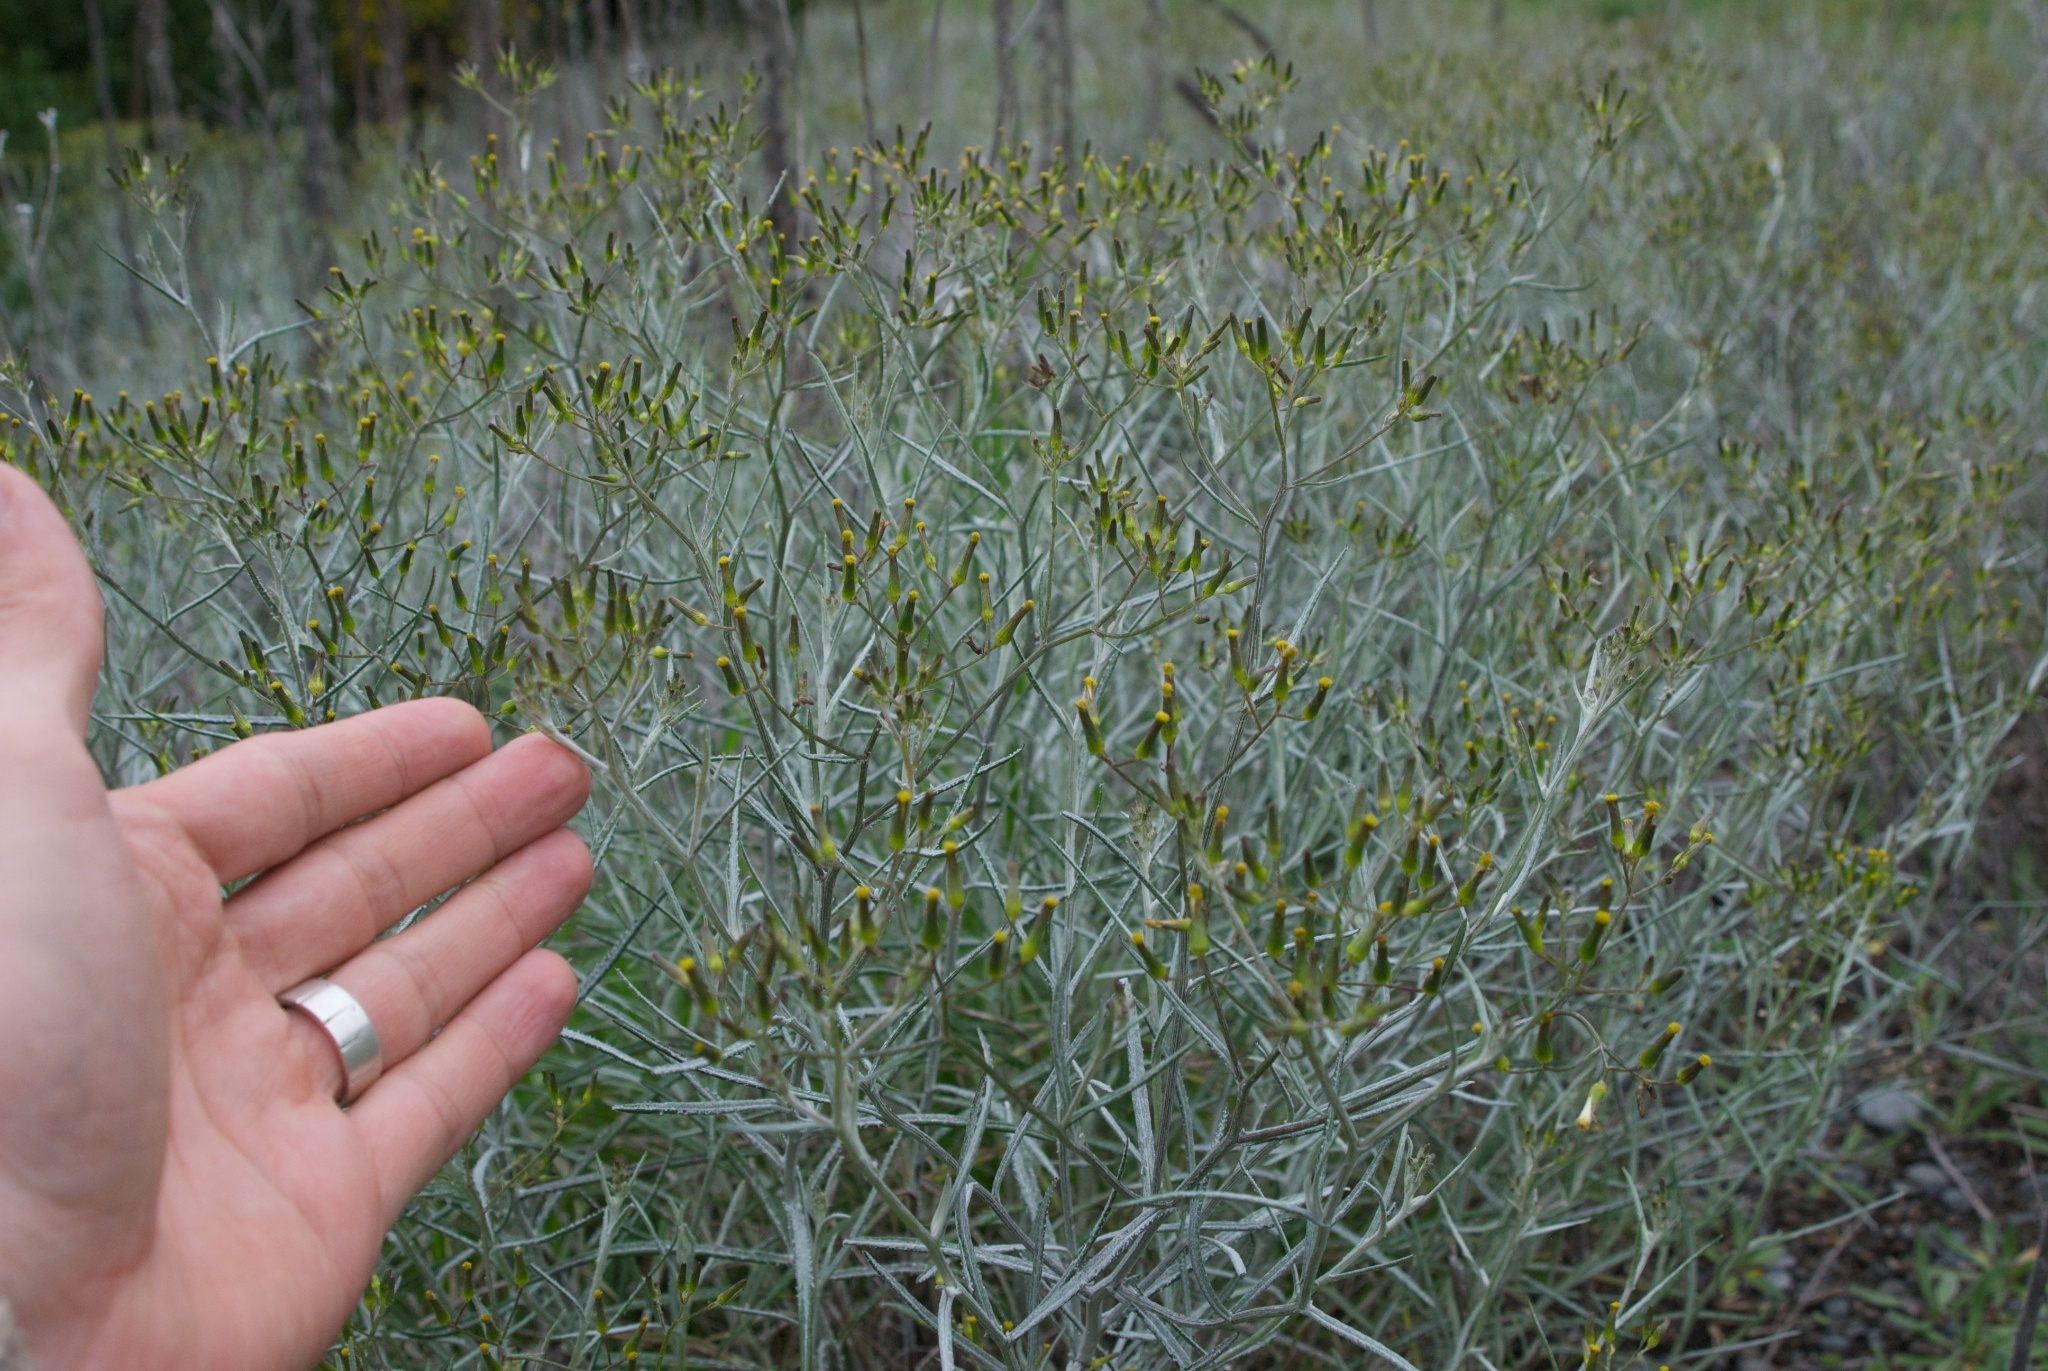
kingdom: Plantae
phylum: Tracheophyta
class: Magnoliopsida
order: Asterales
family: Asteraceae
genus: Senecio
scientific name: Senecio quadridentatus
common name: Cotton fireweed
